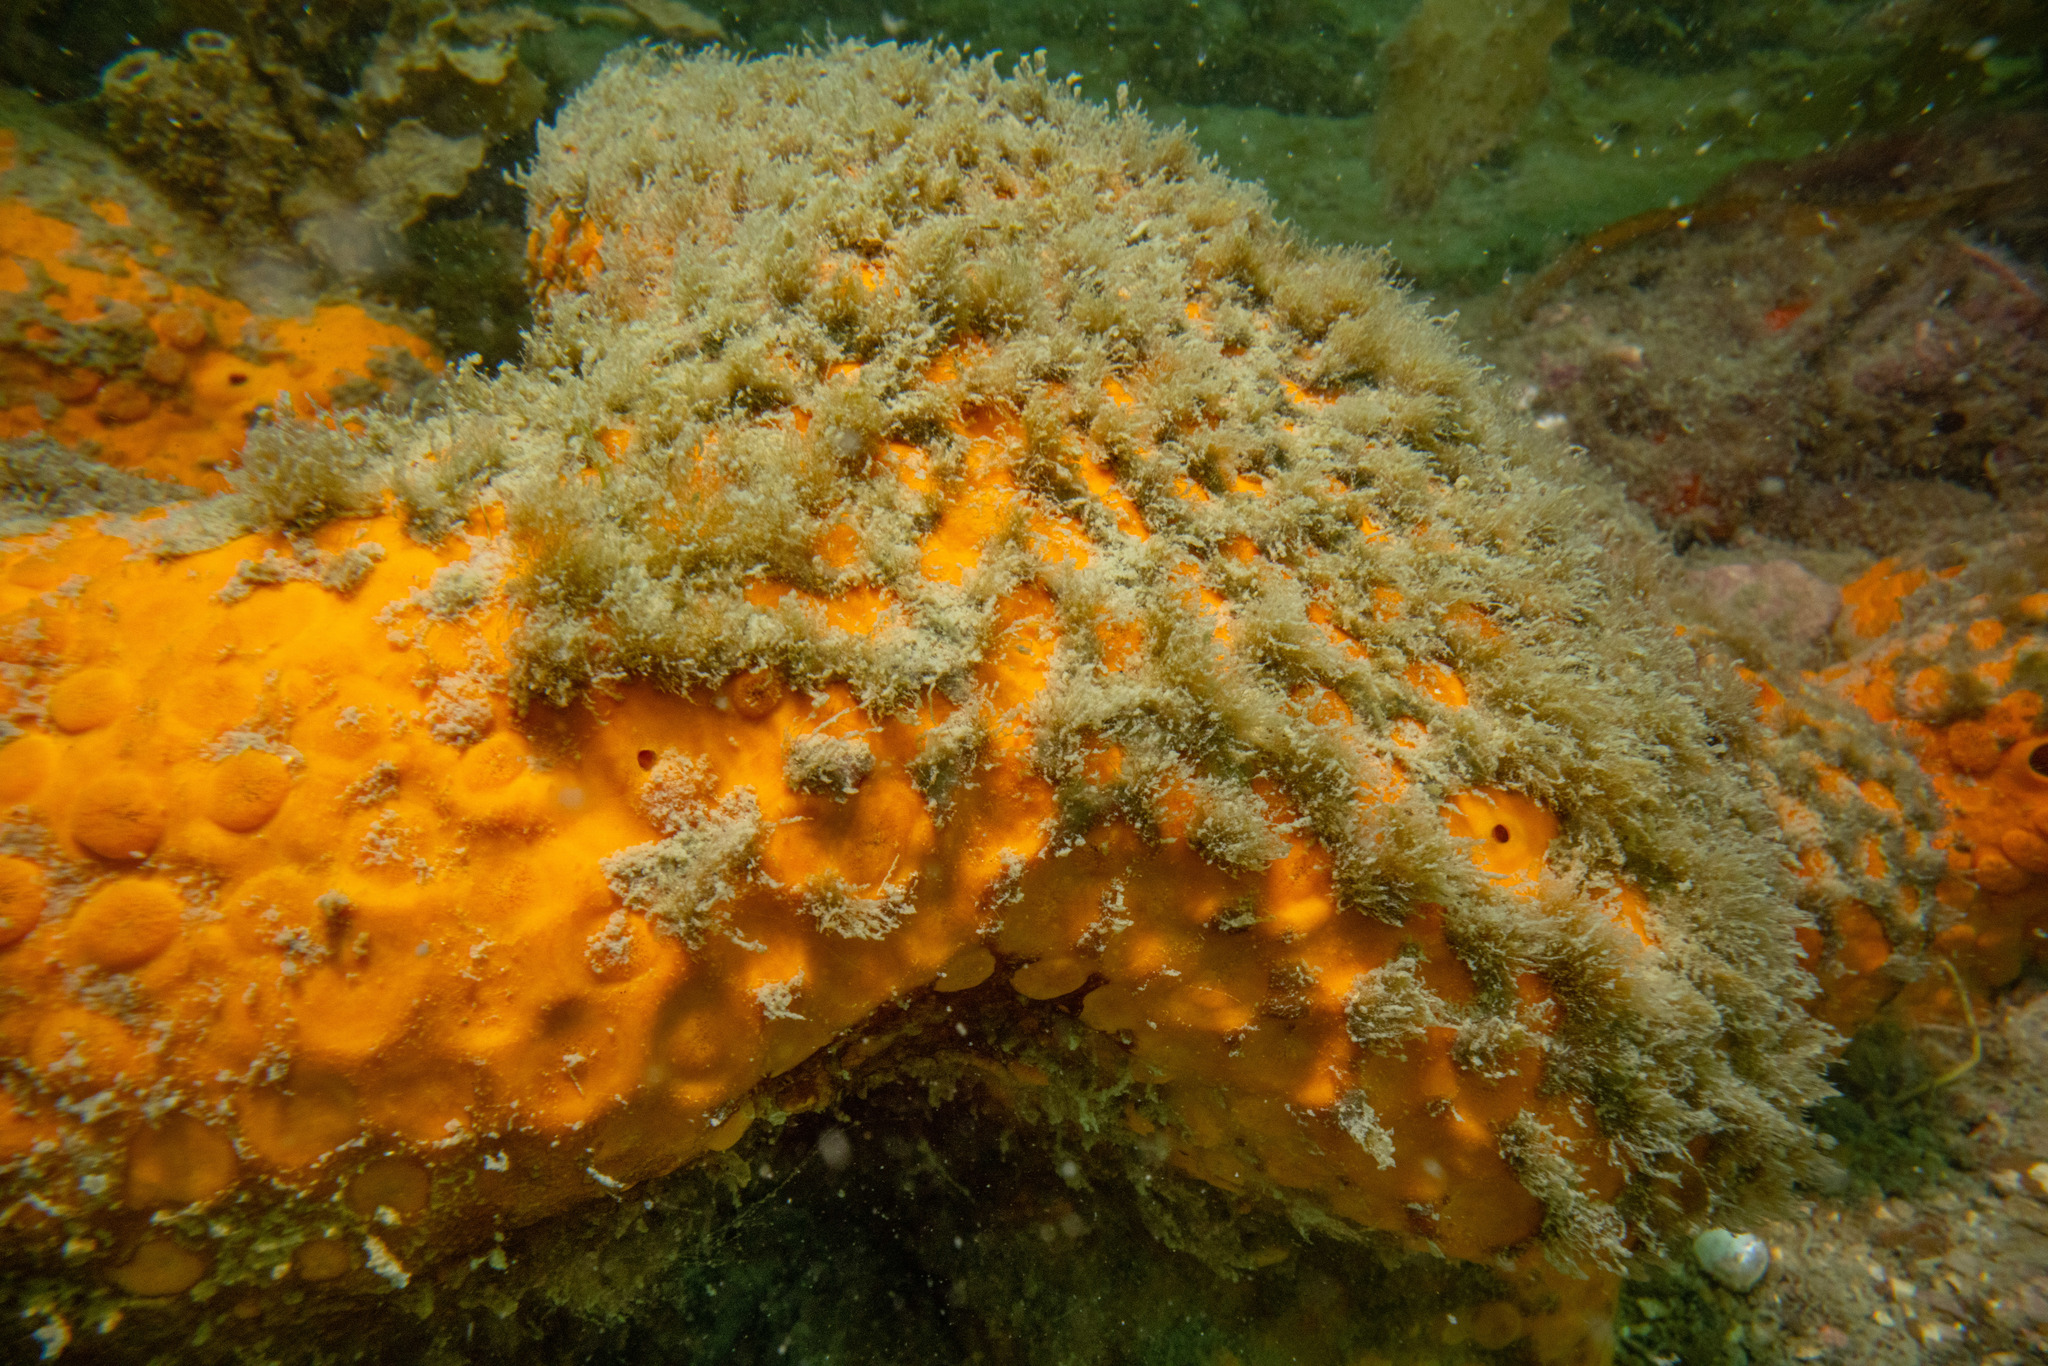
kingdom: Animalia
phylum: Porifera
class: Demospongiae
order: Clionaida
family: Clionaidae
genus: Cliona
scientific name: Cliona celata
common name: Boring sponge
